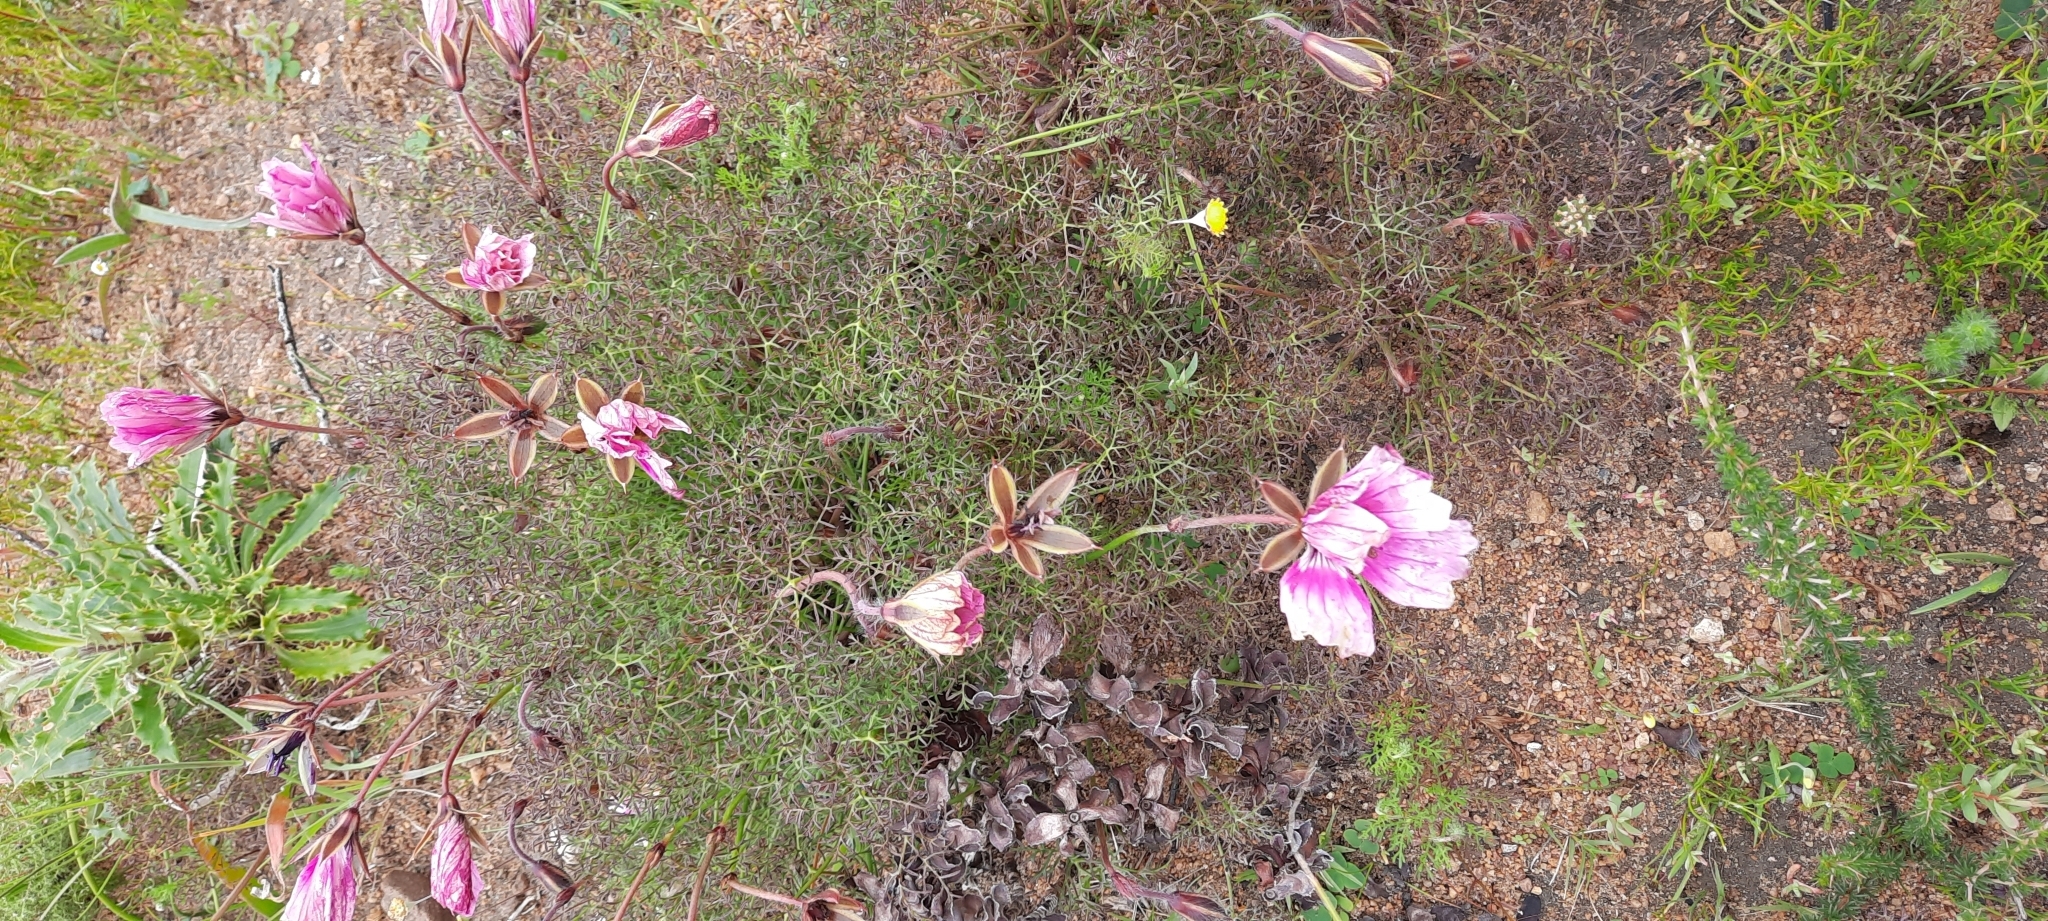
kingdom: Plantae
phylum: Tracheophyta
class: Magnoliopsida
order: Geraniales
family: Geraniaceae
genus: Monsonia
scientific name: Monsonia speciosa
